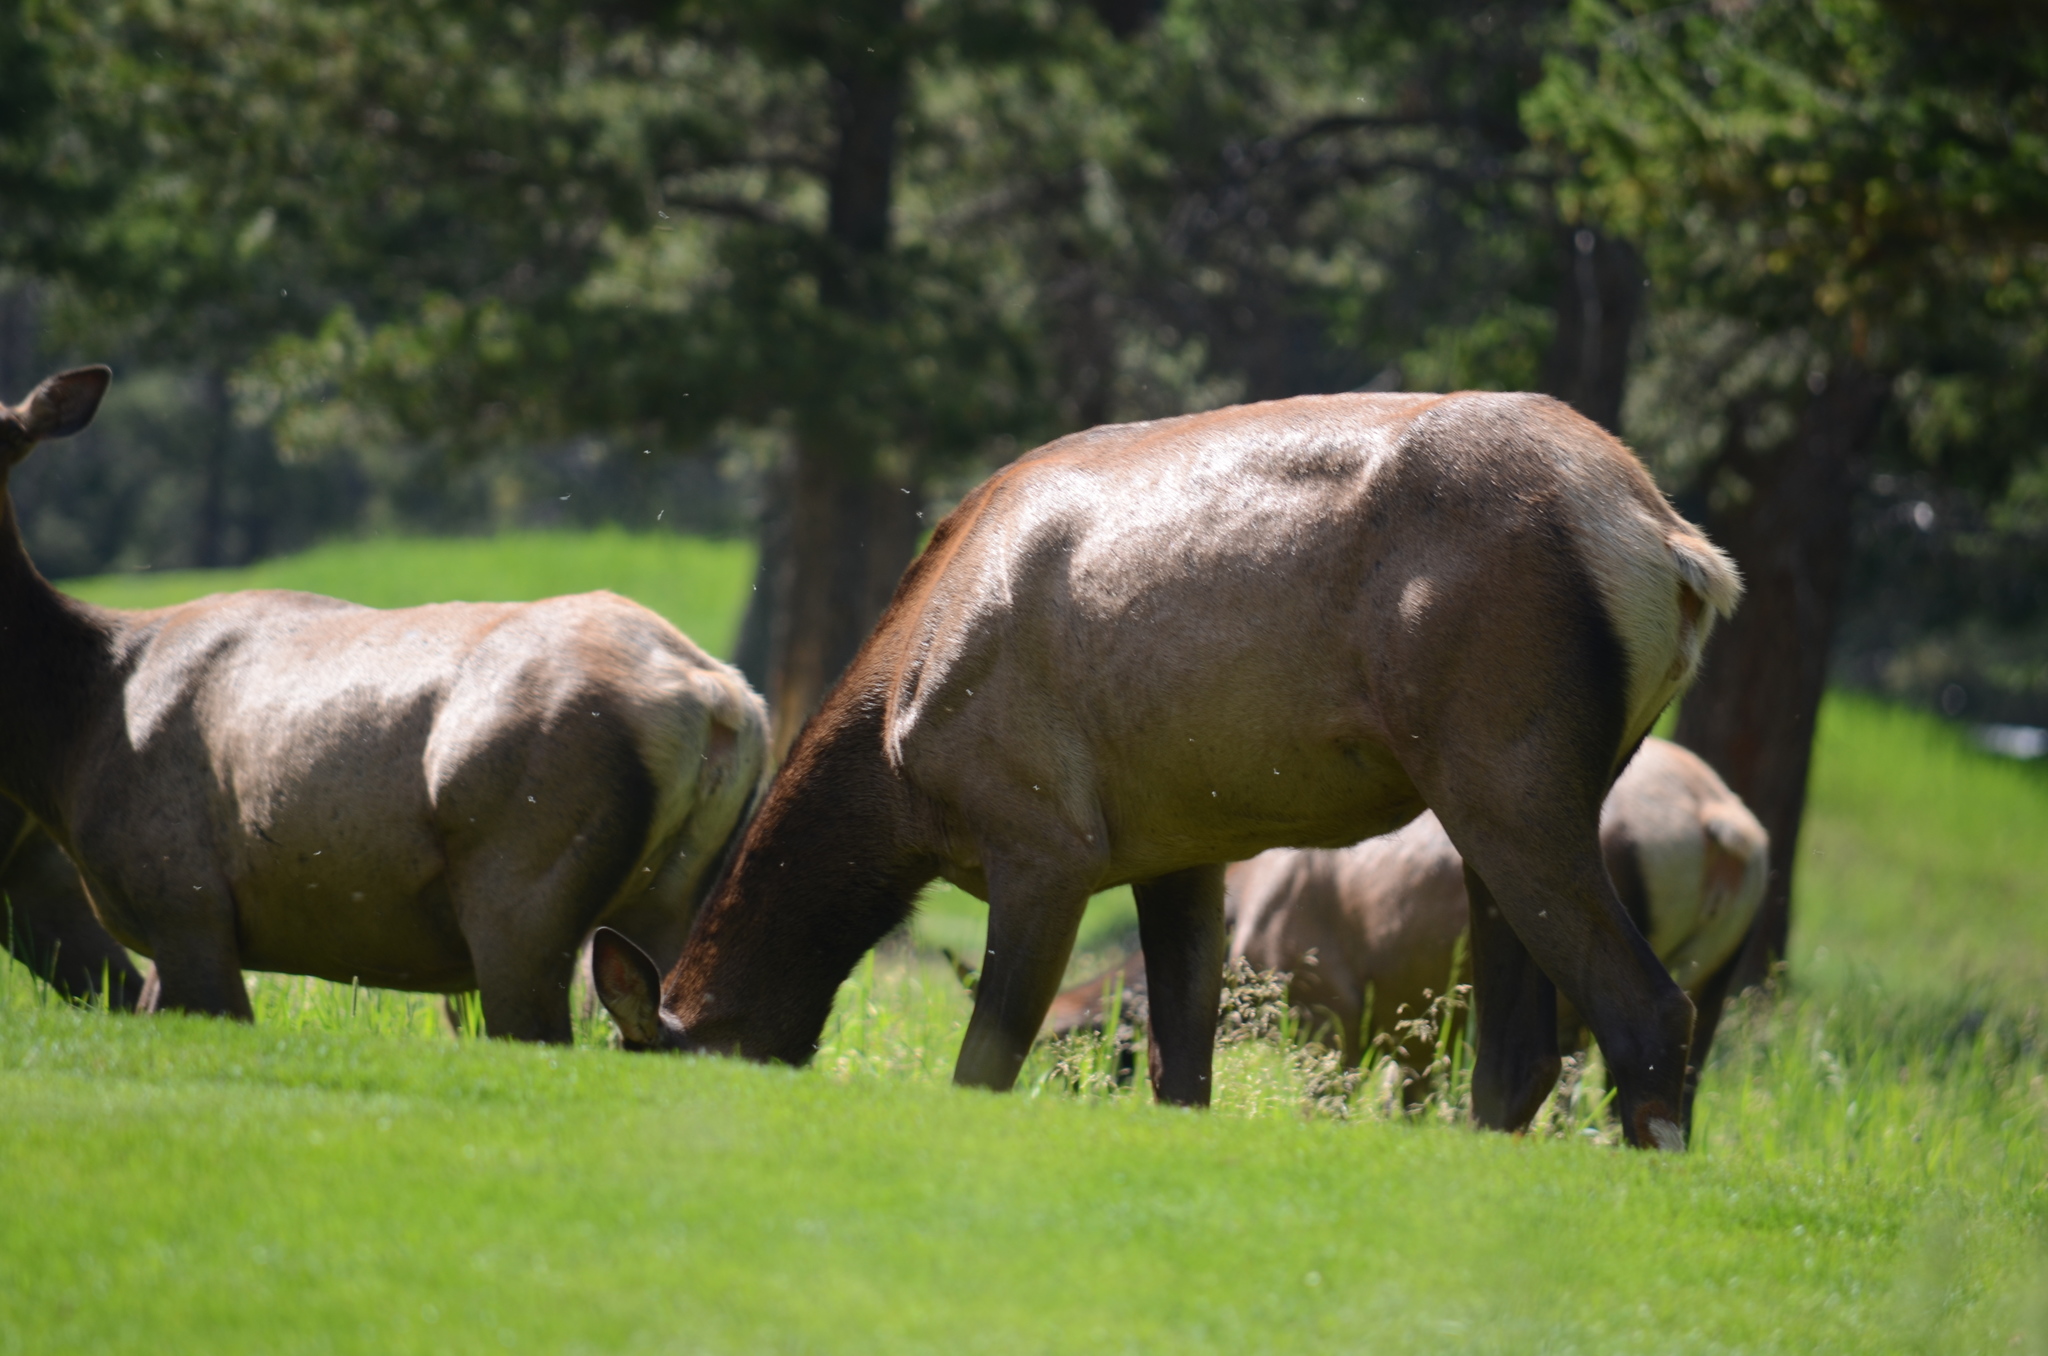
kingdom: Animalia
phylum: Chordata
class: Mammalia
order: Artiodactyla
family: Cervidae
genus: Cervus
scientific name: Cervus elaphus
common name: Red deer
